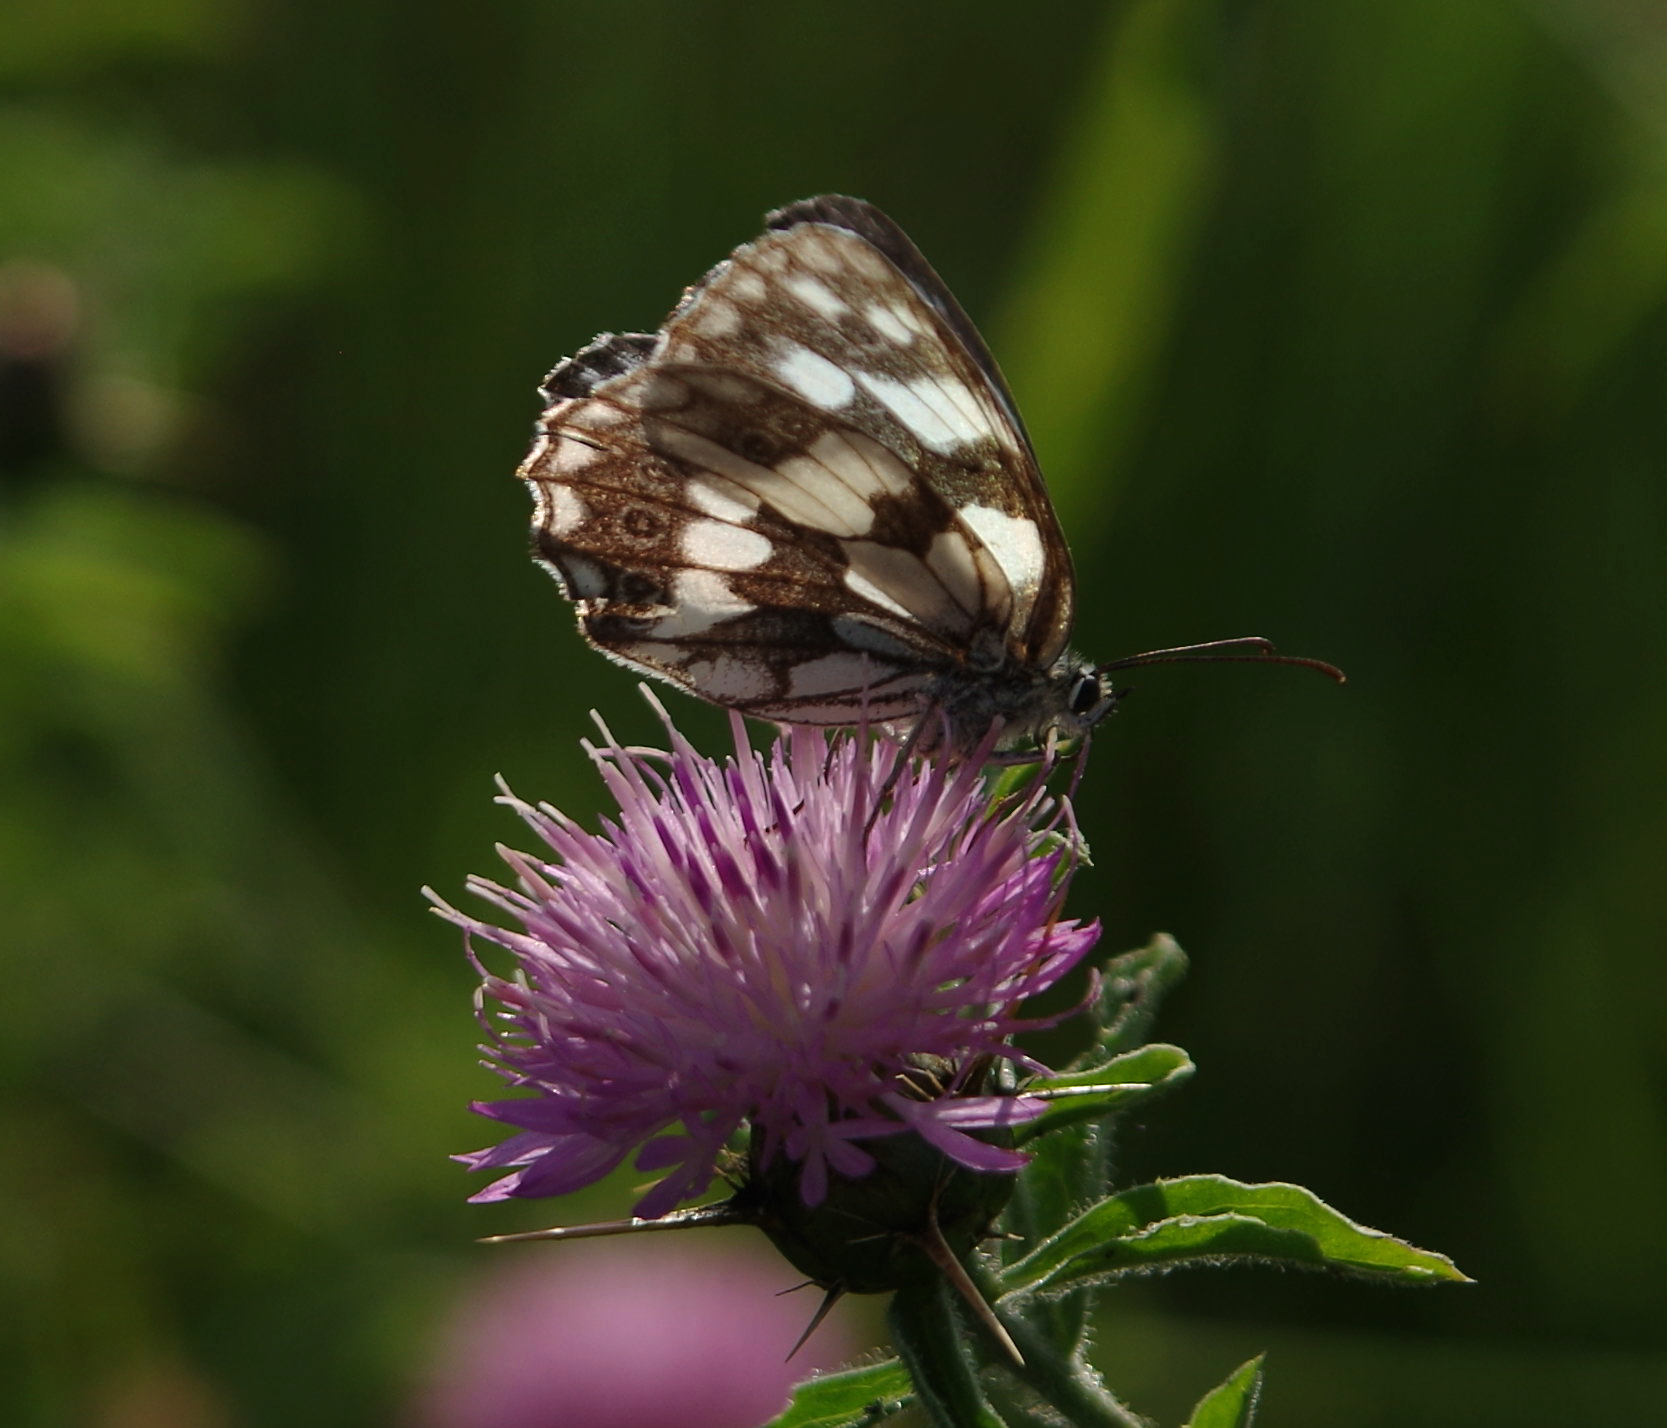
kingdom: Animalia
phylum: Arthropoda
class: Insecta
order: Lepidoptera
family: Nymphalidae
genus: Melanargia
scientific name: Melanargia galathea
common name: Marbled white
